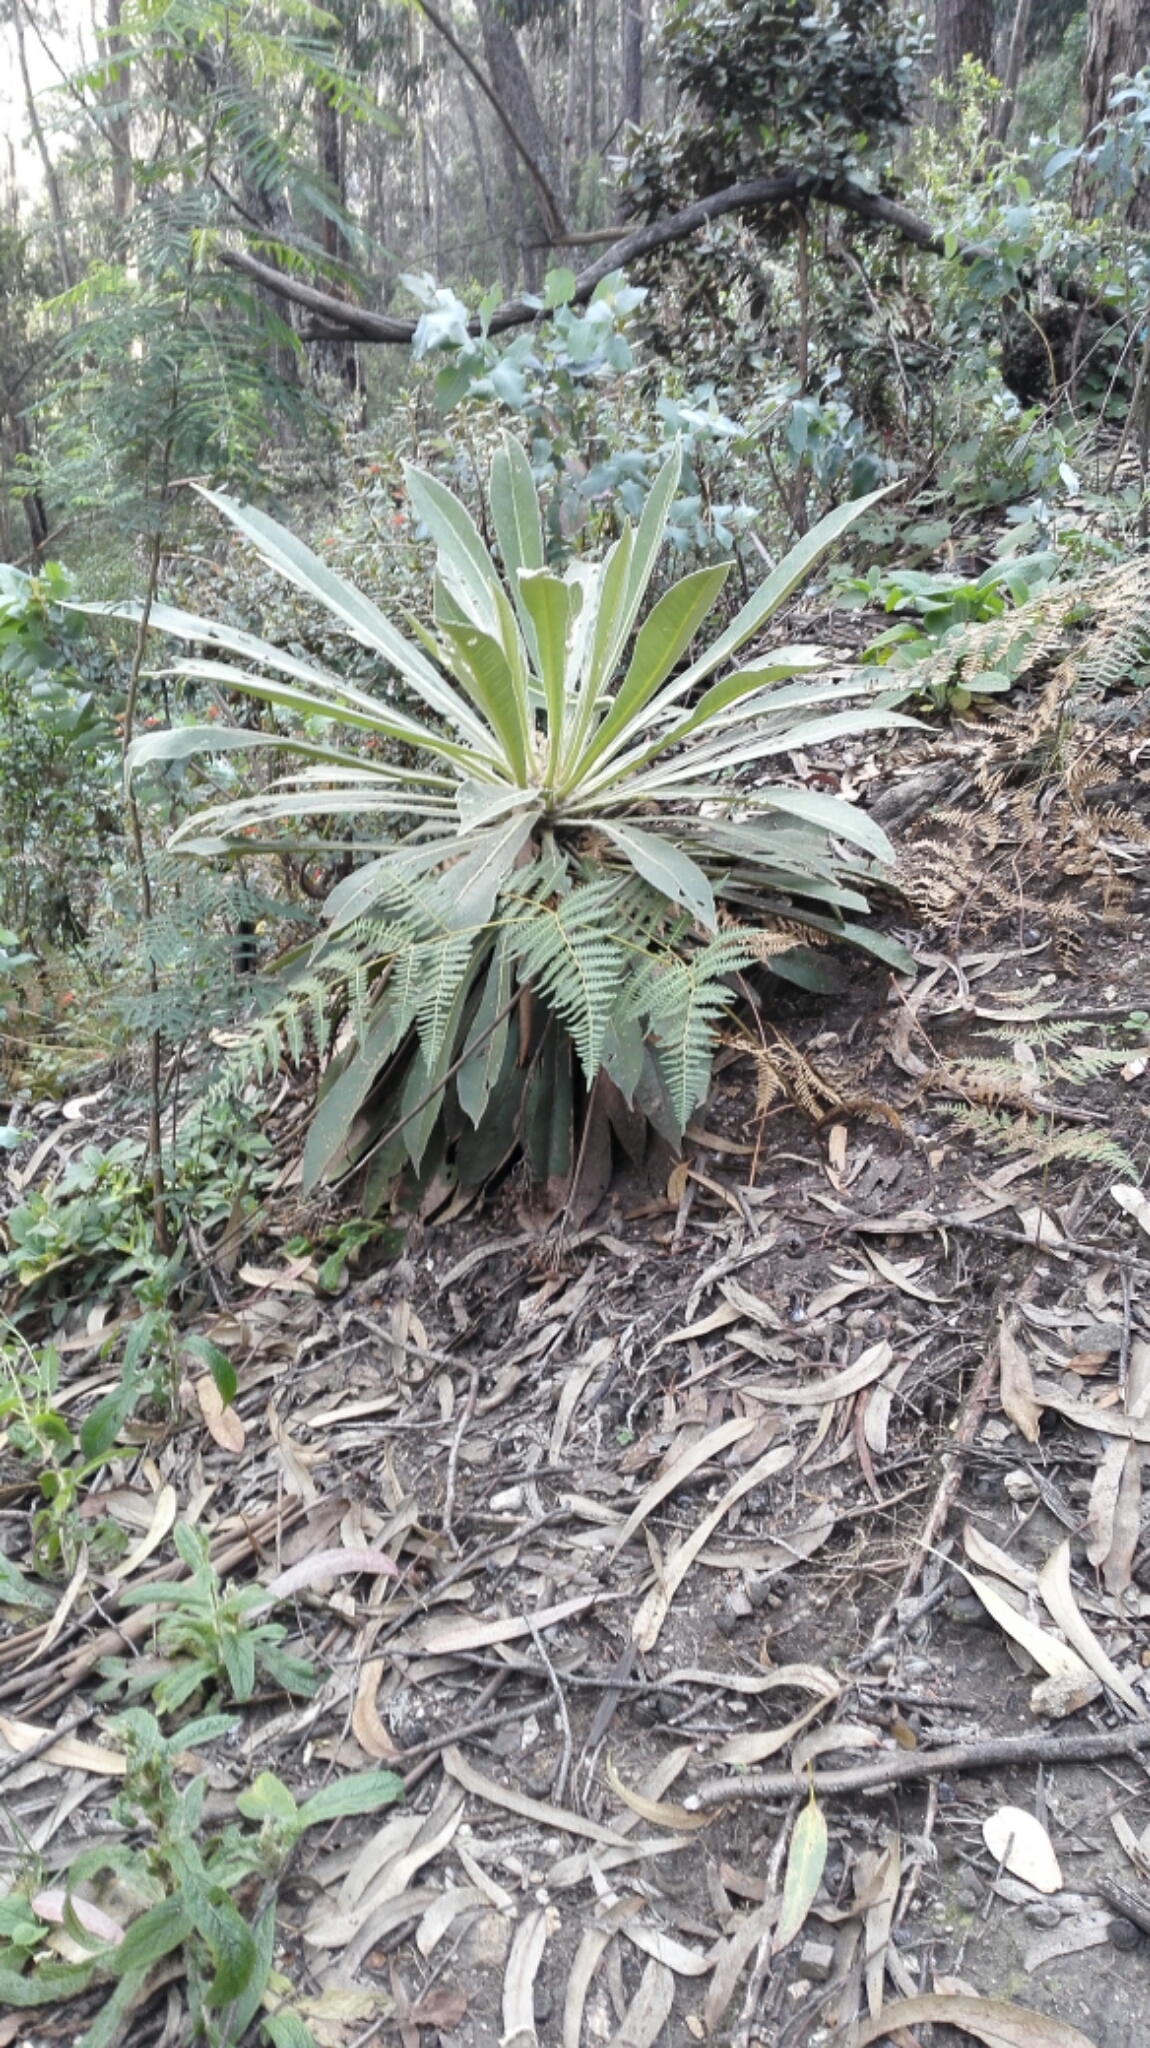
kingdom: Plantae
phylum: Tracheophyta
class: Magnoliopsida
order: Asterales
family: Asteraceae
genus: Espeletia
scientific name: Espeletia corymbosa
